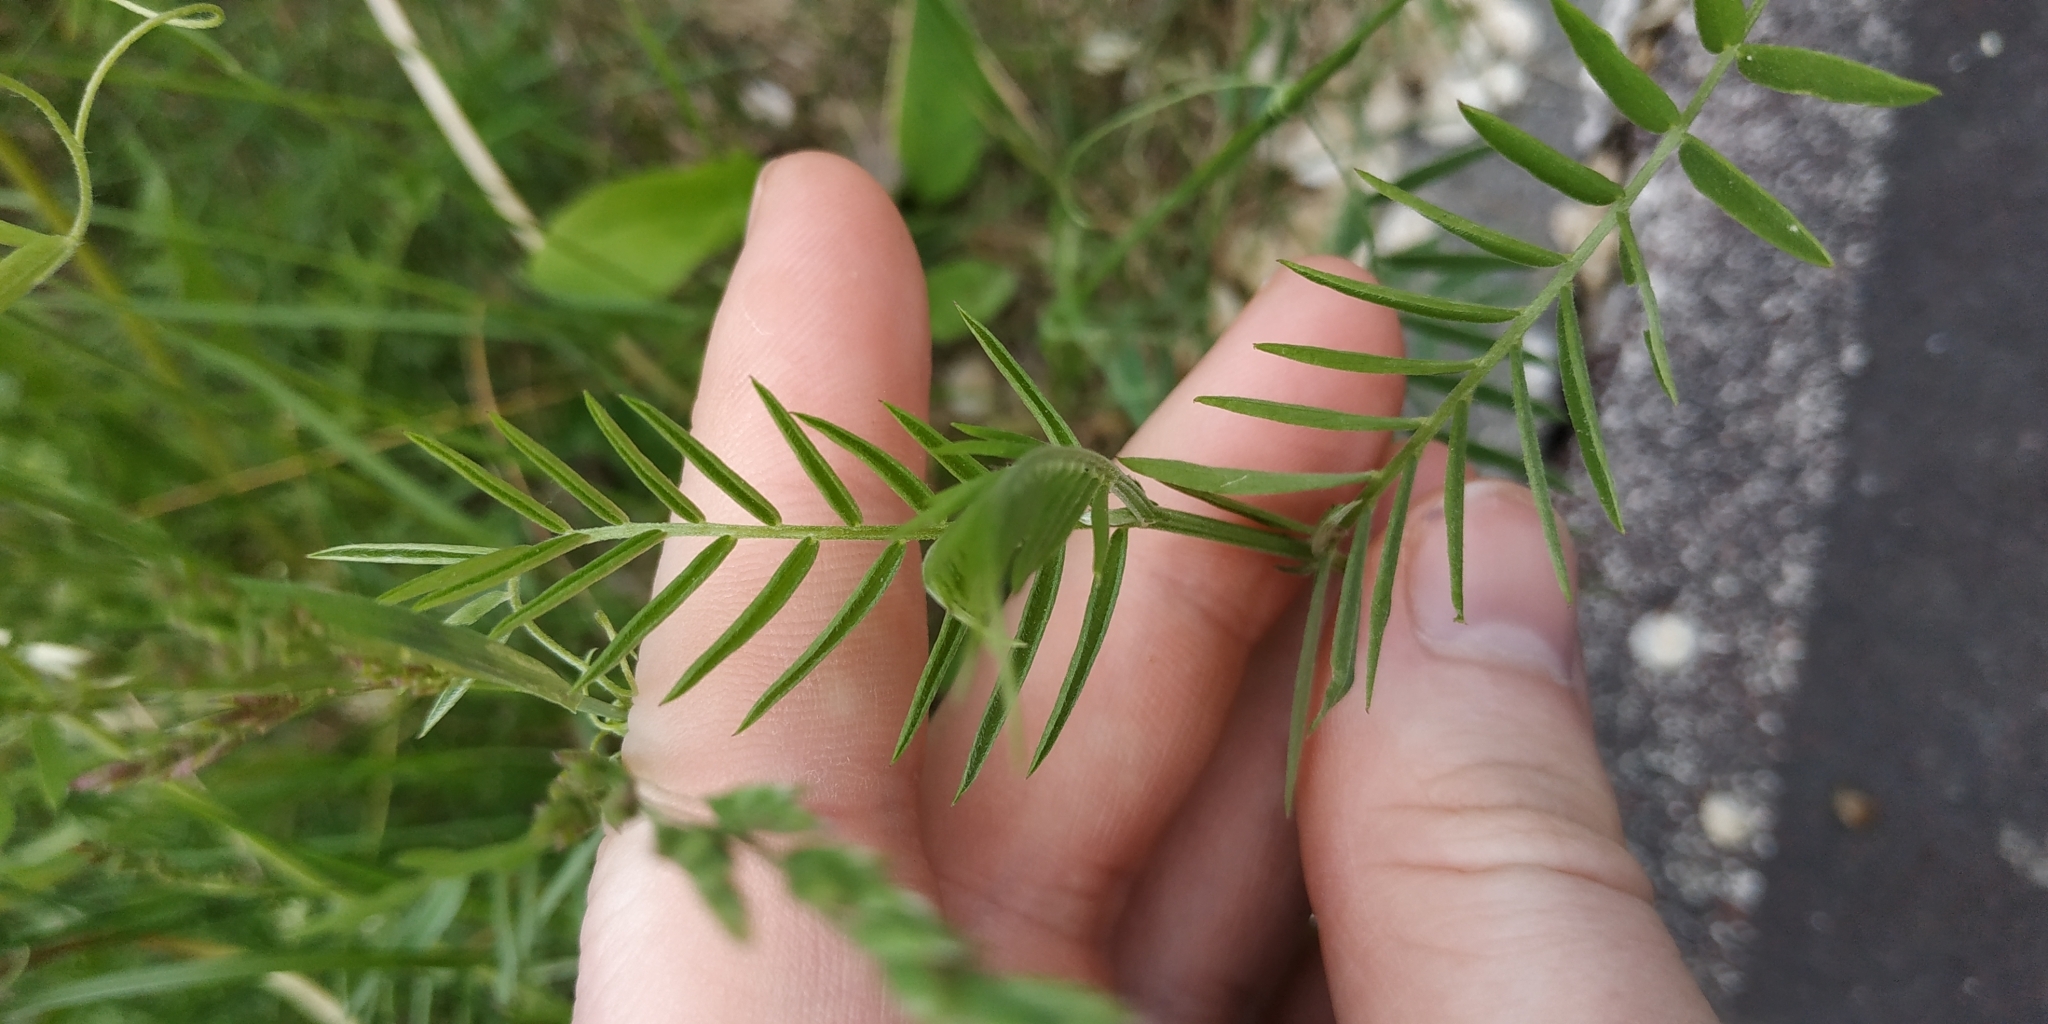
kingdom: Plantae
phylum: Tracheophyta
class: Magnoliopsida
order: Fabales
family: Fabaceae
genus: Vicia
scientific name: Vicia cracca
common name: Bird vetch
